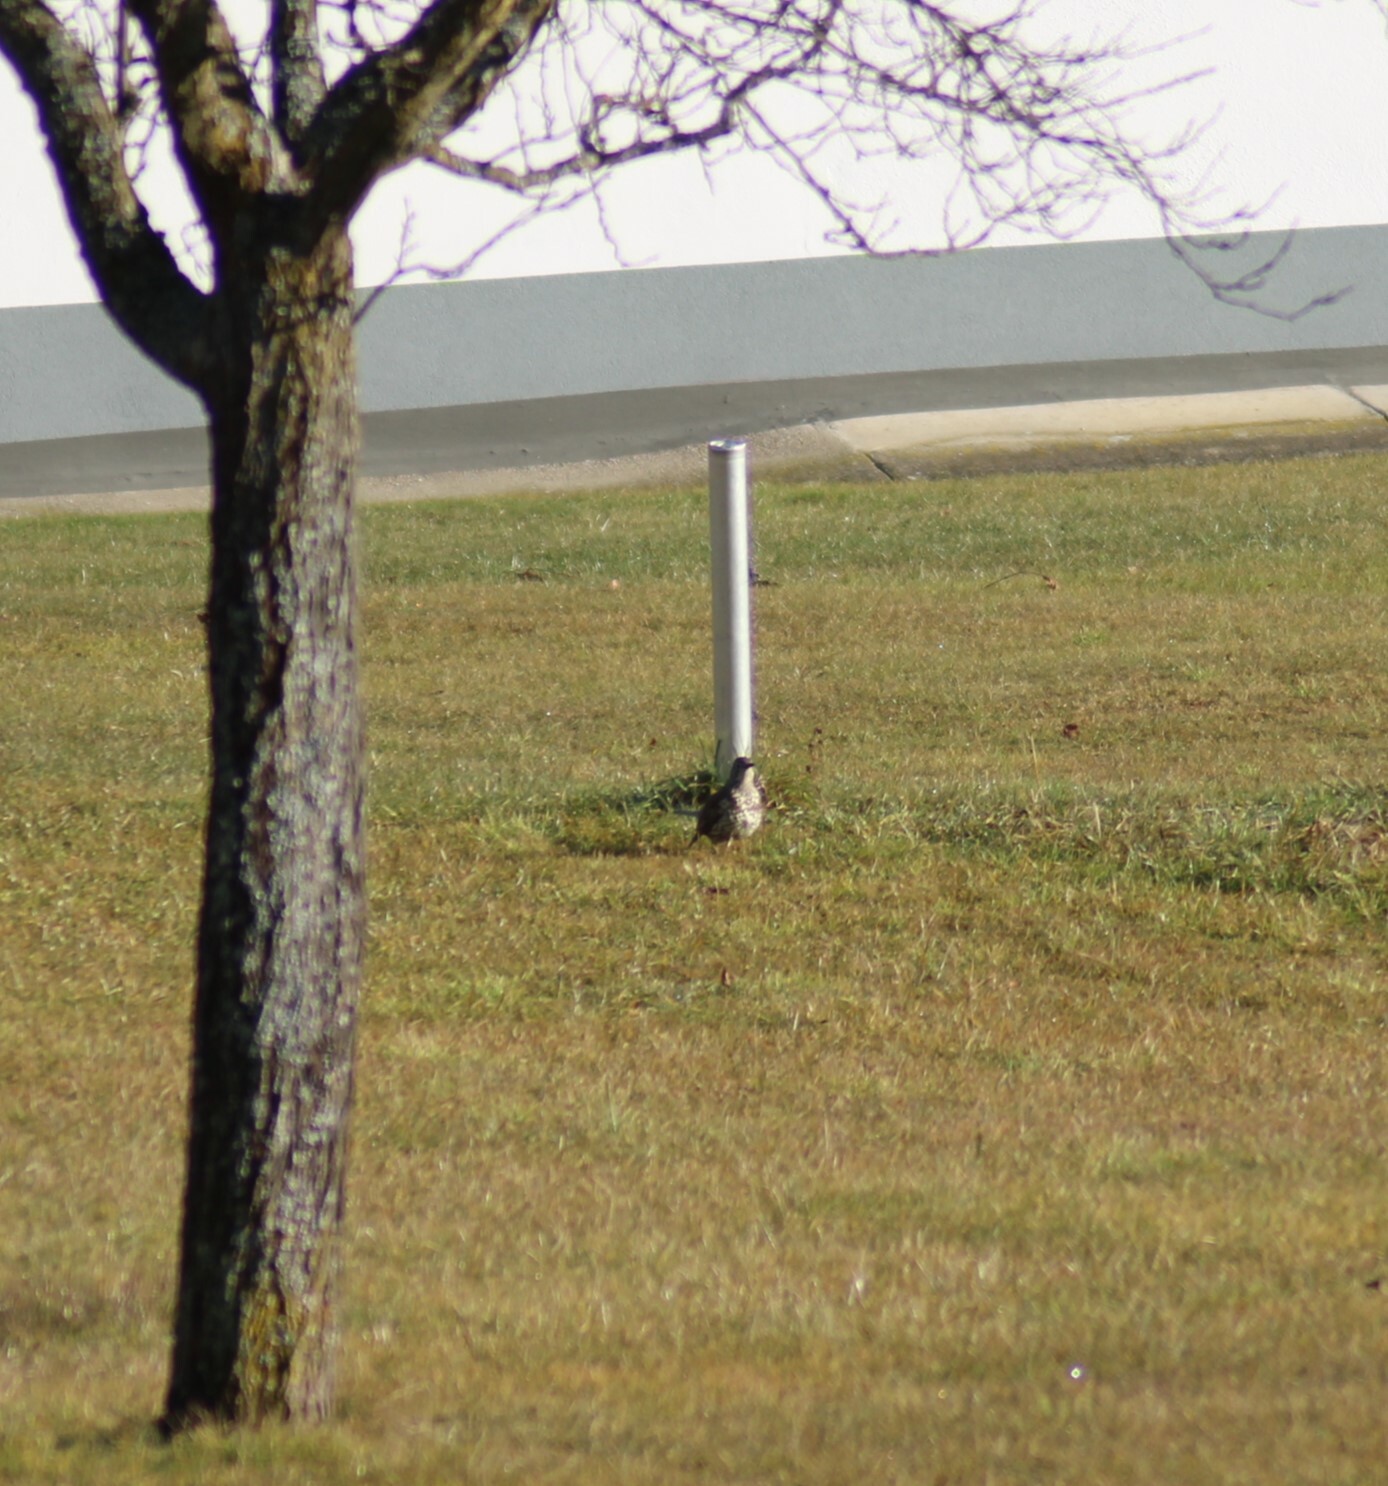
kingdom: Animalia
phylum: Chordata
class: Aves
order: Passeriformes
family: Turdidae
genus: Turdus
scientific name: Turdus viscivorus
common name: Mistle thrush
